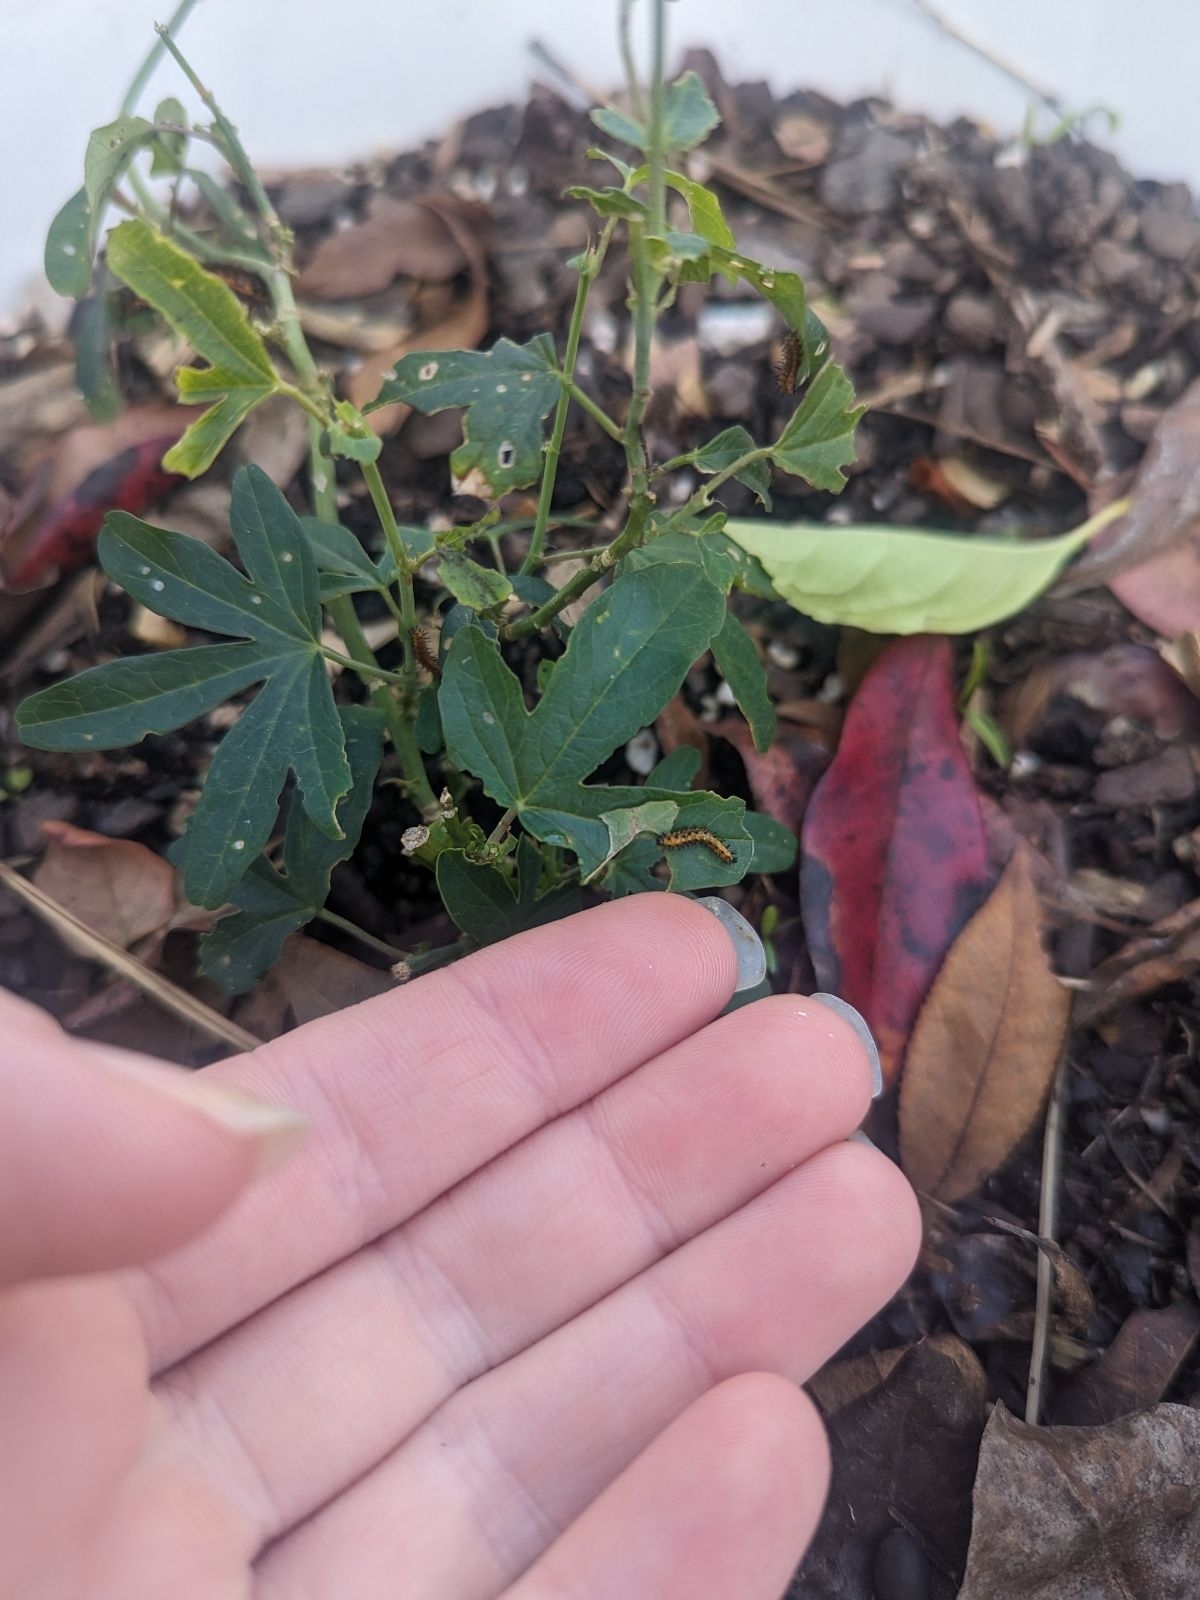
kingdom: Animalia
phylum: Arthropoda
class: Insecta
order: Lepidoptera
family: Nymphalidae
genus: Dione
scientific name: Dione vanillae
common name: Gulf fritillary
